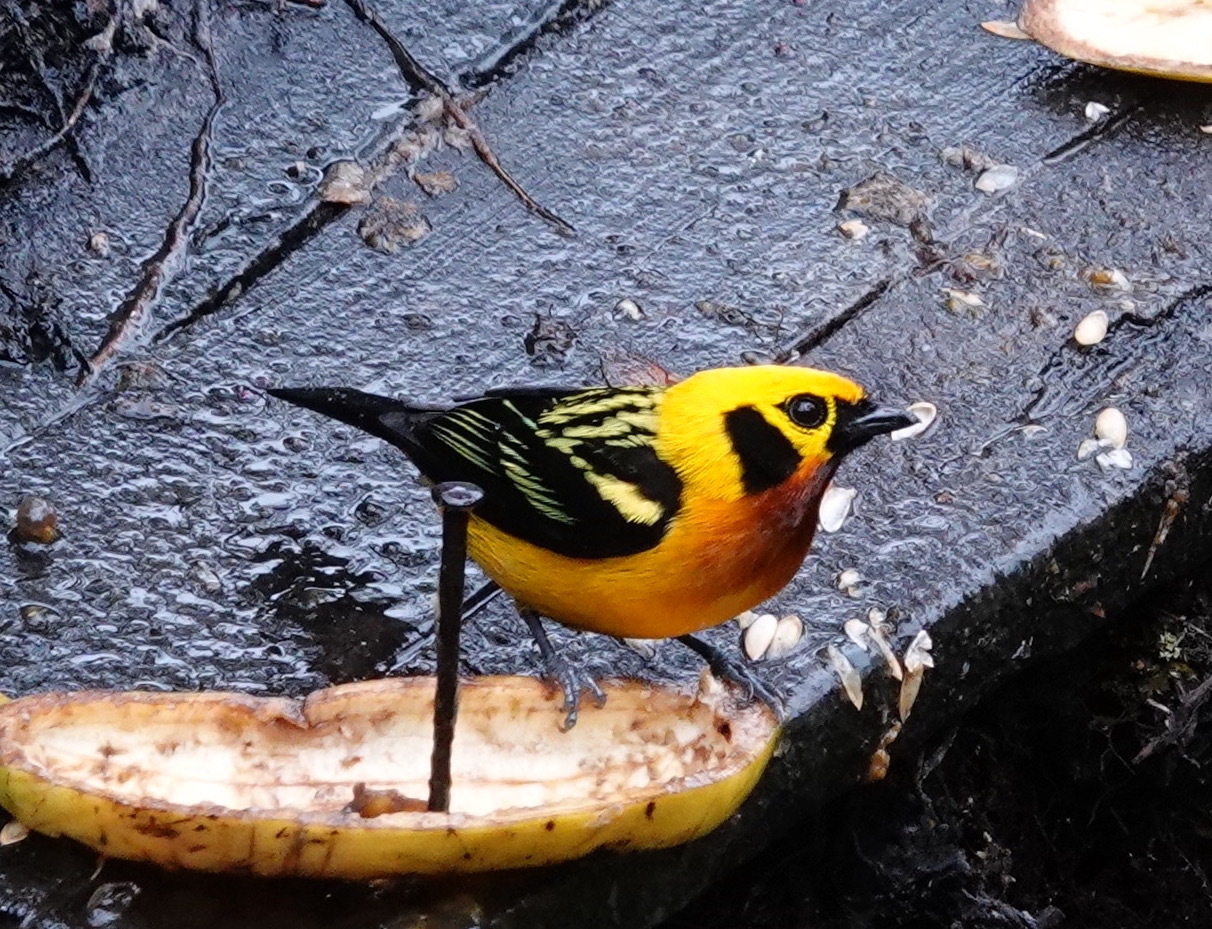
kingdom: Animalia
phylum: Chordata
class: Aves
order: Passeriformes
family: Thraupidae
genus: Tangara
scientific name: Tangara arthus
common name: Golden tanager
